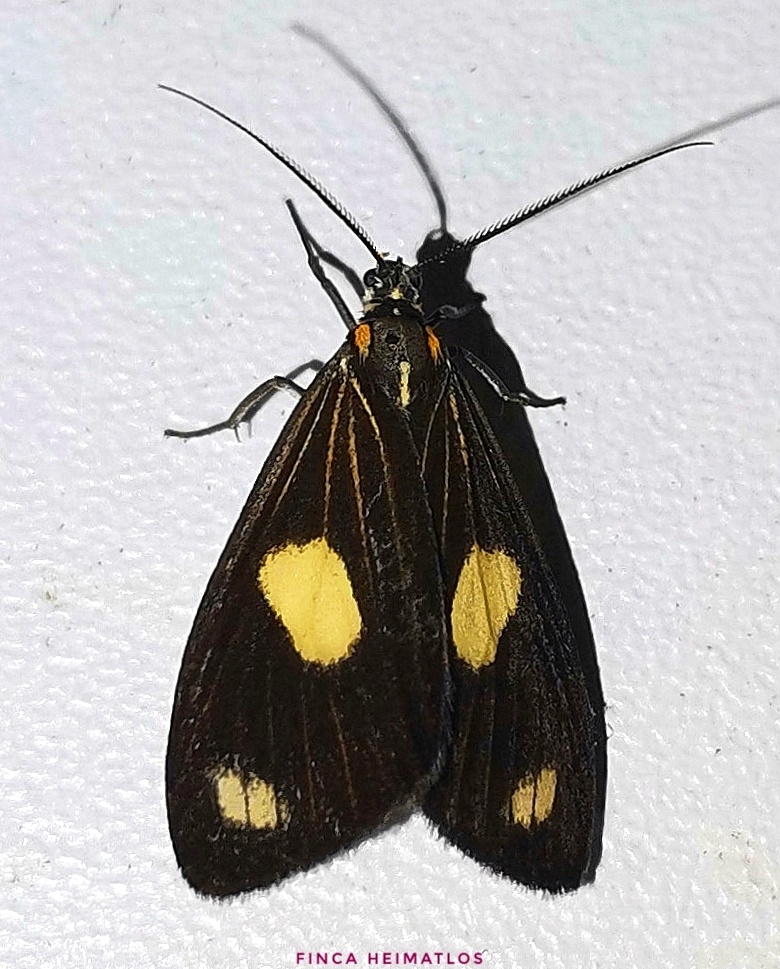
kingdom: Animalia
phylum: Arthropoda
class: Insecta
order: Lepidoptera
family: Notodontidae
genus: Xenorma
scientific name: Xenorma cytheris
